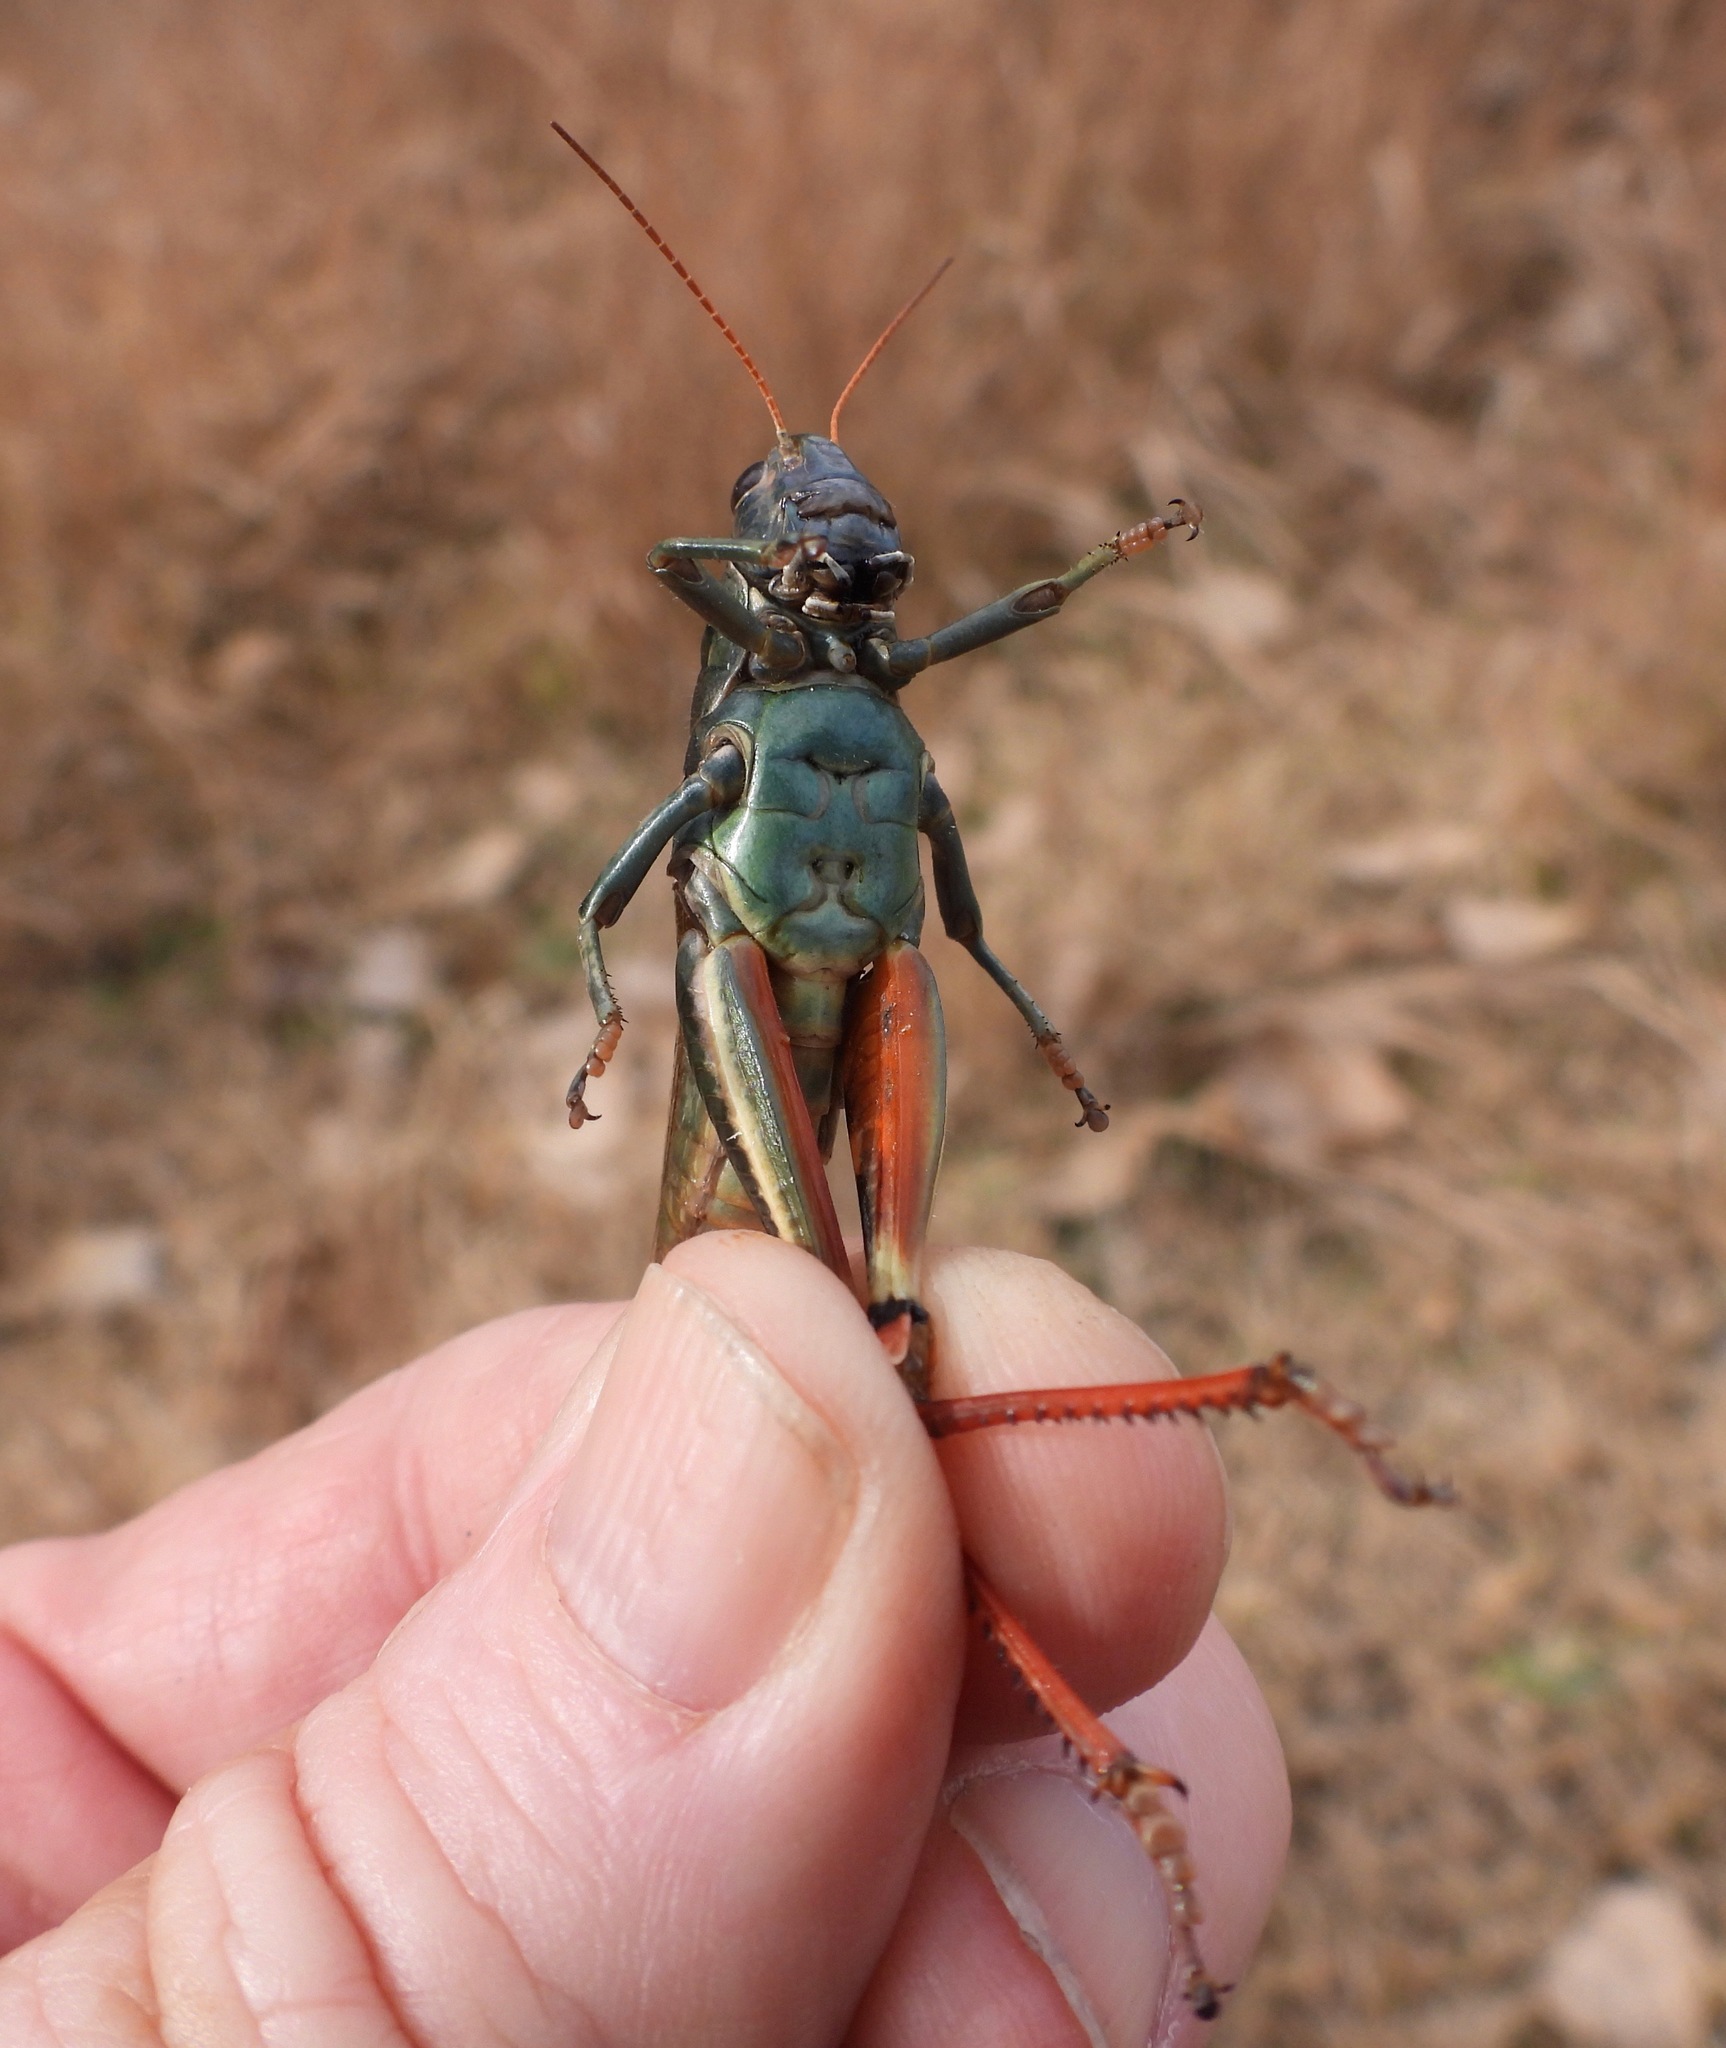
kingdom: Animalia
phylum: Arthropoda
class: Insecta
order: Orthoptera
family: Acrididae
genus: Melanoplus
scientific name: Melanoplus thomasi
